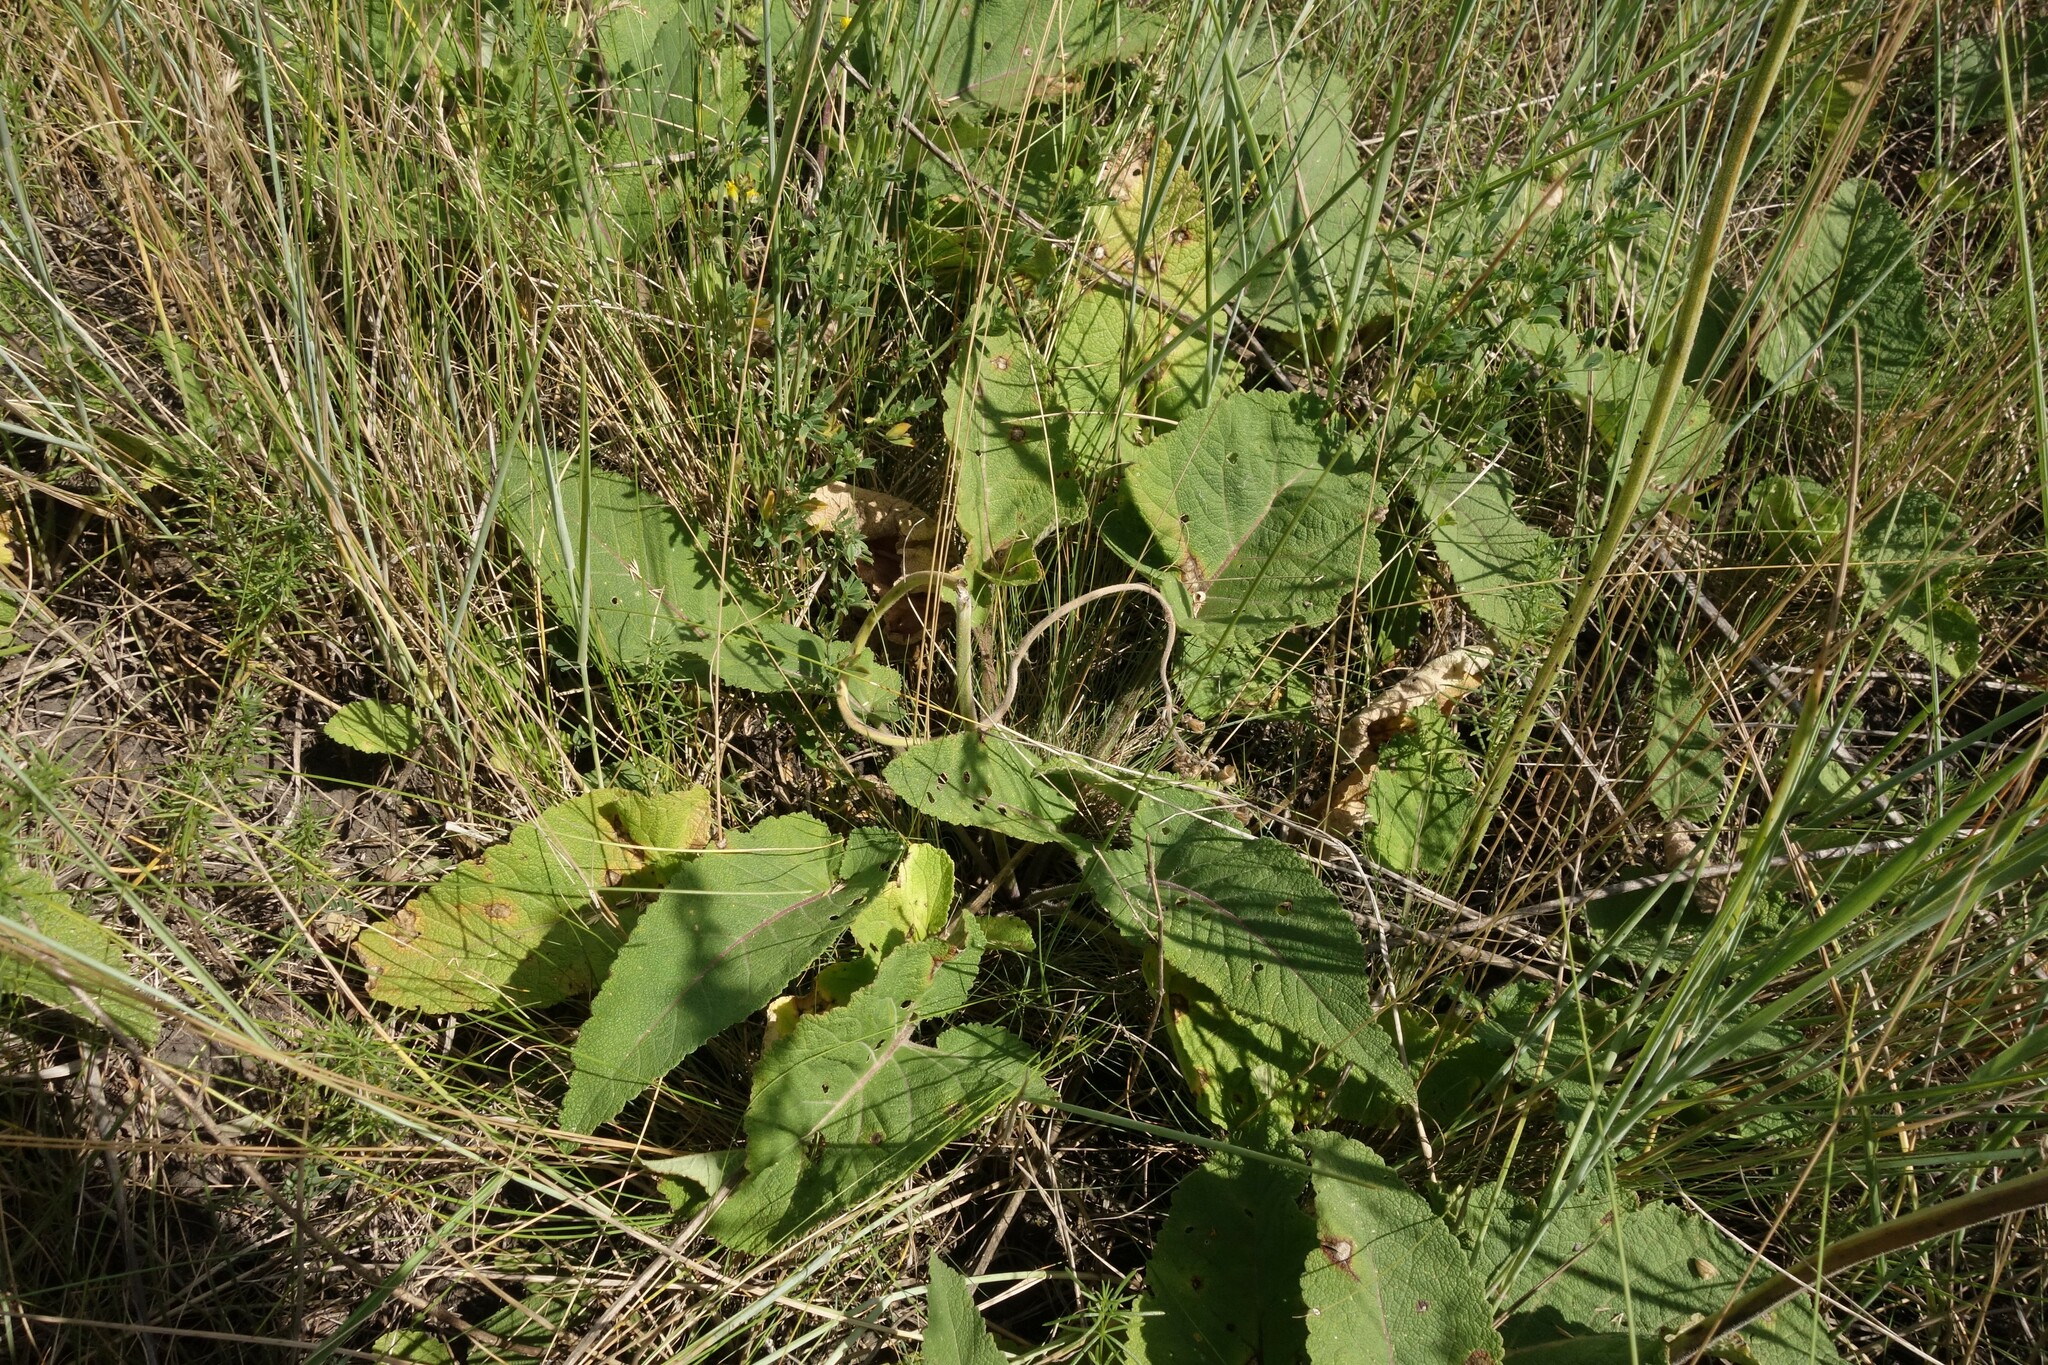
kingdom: Plantae
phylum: Tracheophyta
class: Magnoliopsida
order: Lamiales
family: Lamiaceae
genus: Salvia
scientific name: Salvia nutans
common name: Nodding sage
